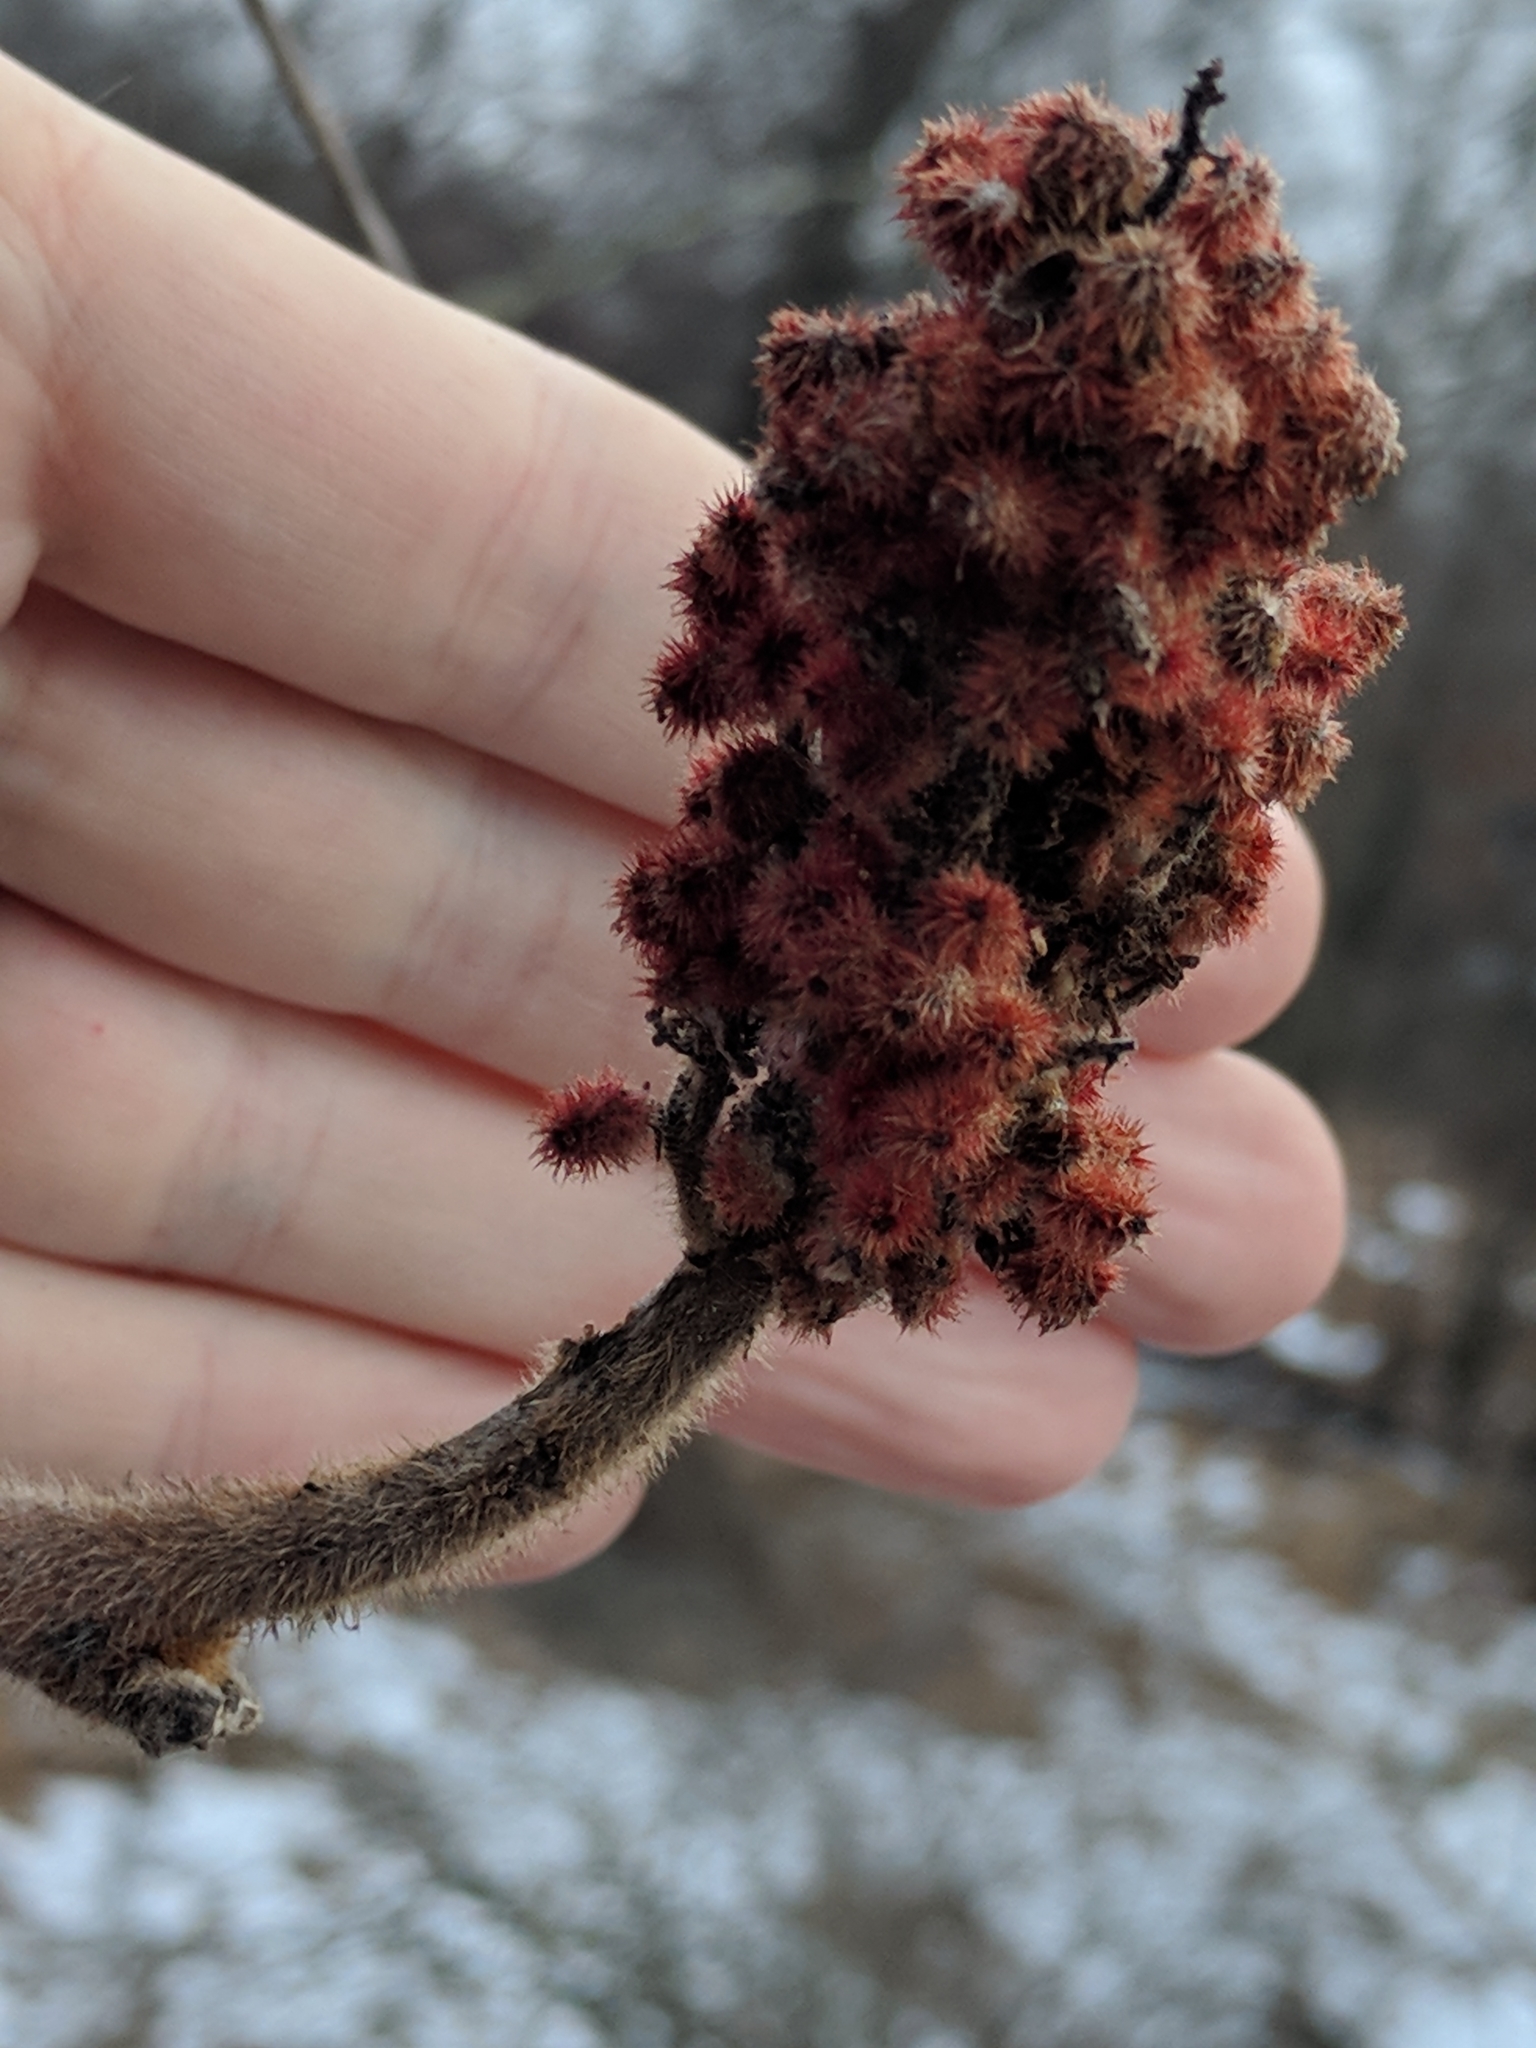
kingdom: Plantae
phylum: Tracheophyta
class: Magnoliopsida
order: Sapindales
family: Anacardiaceae
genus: Rhus
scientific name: Rhus typhina
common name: Staghorn sumac
